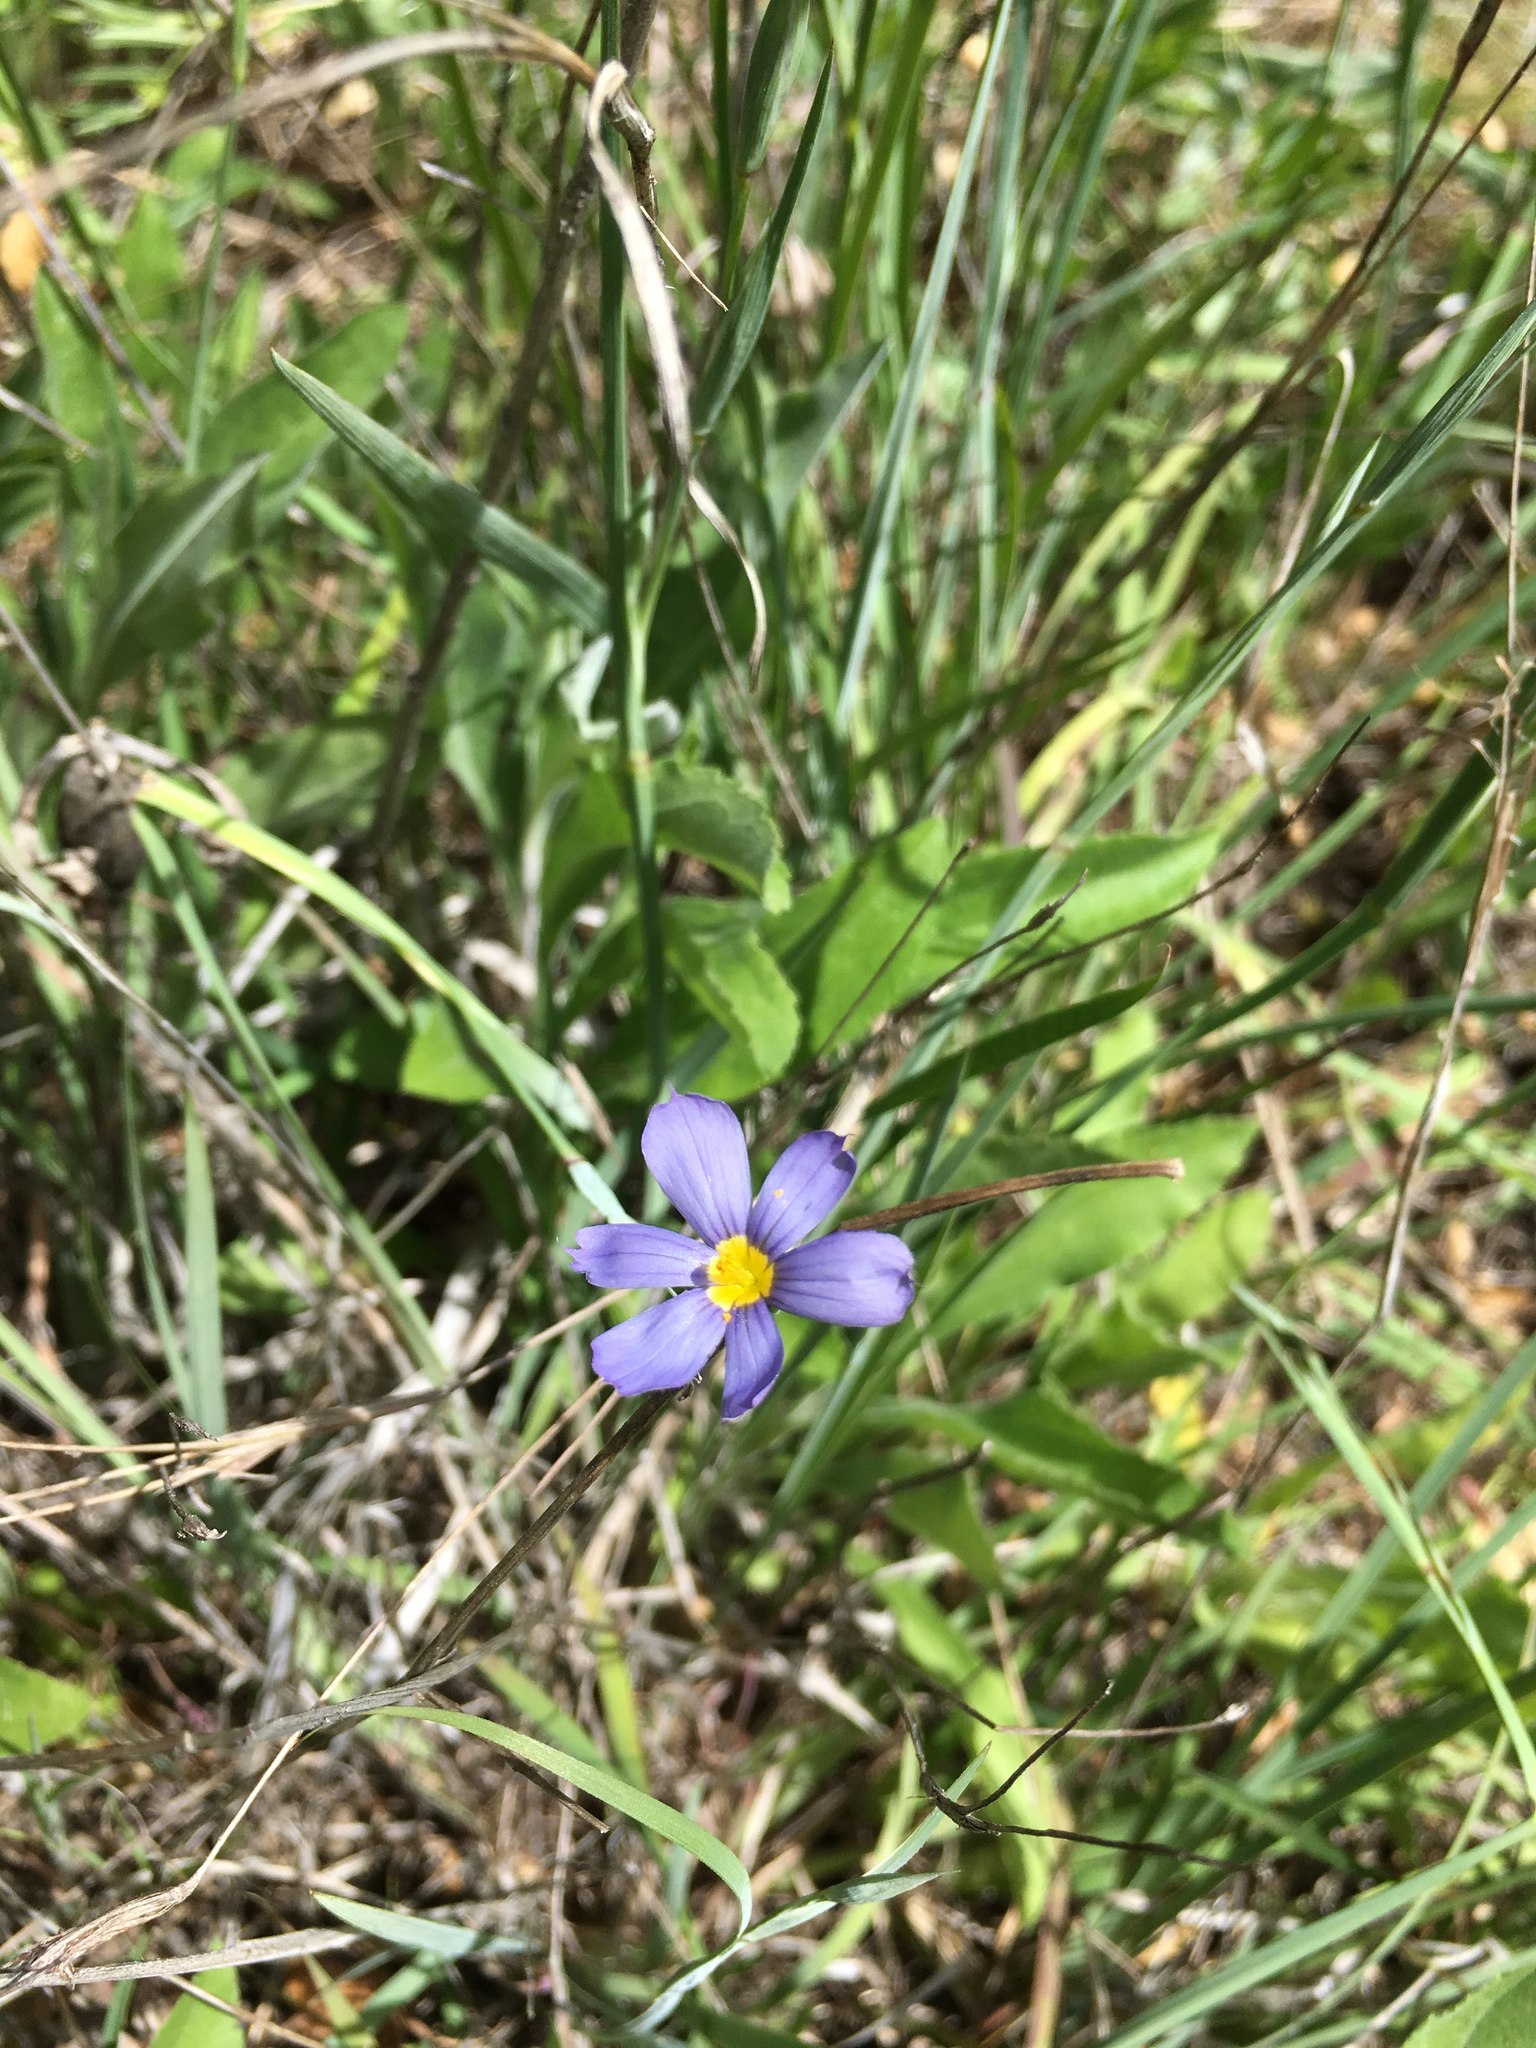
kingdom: Plantae
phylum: Tracheophyta
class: Liliopsida
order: Asparagales
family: Iridaceae
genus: Sisyrinchium
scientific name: Sisyrinchium bellum
